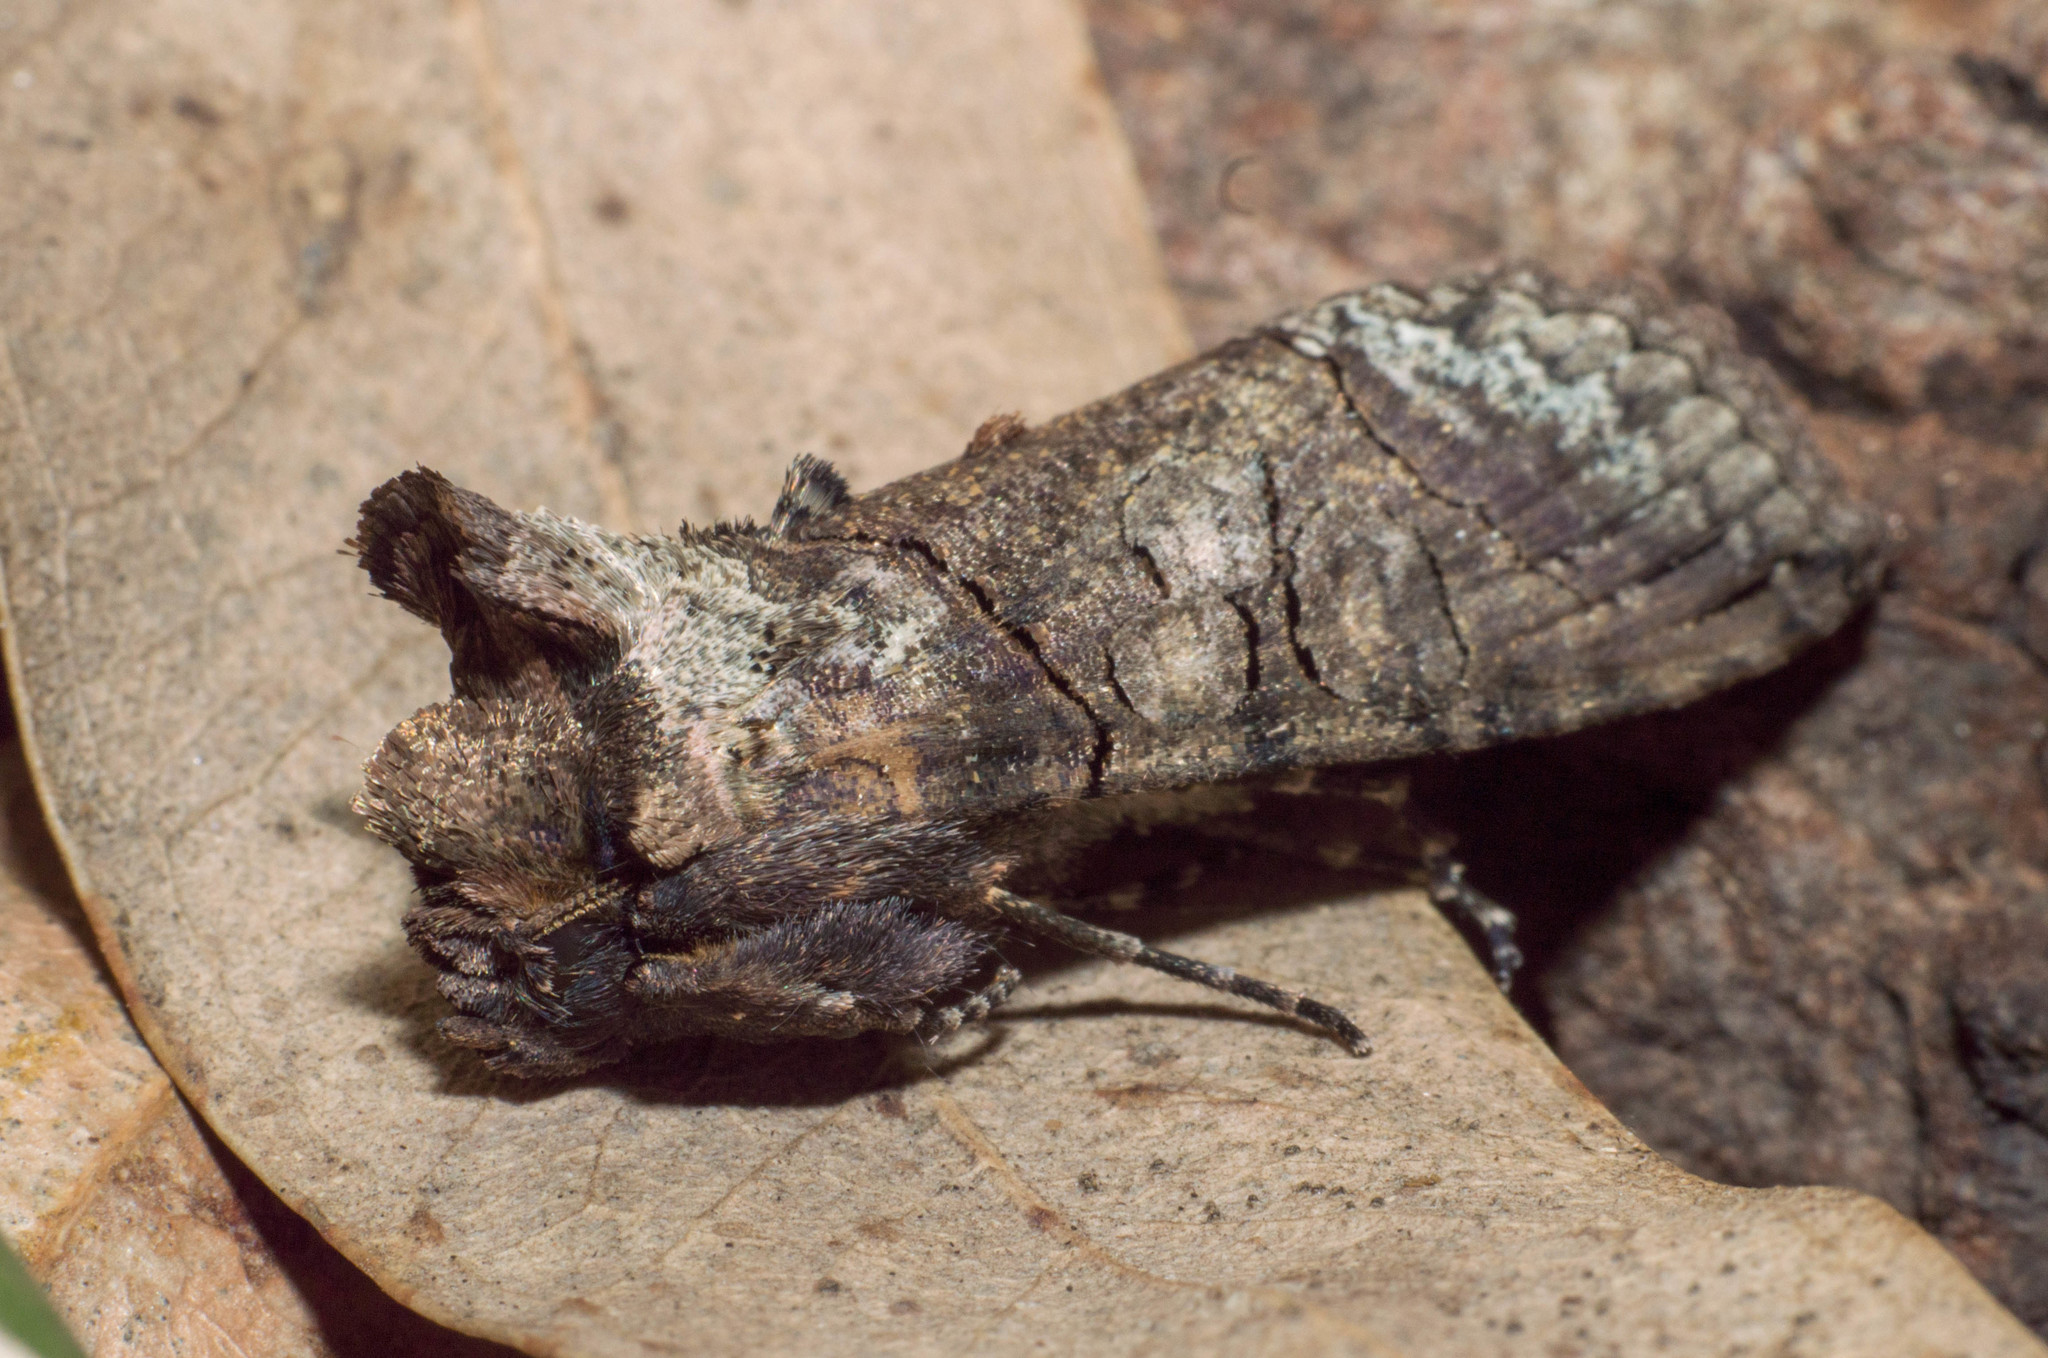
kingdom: Animalia
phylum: Arthropoda
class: Insecta
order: Lepidoptera
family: Noctuidae
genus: Mouralia
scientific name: Mouralia tinctoides
